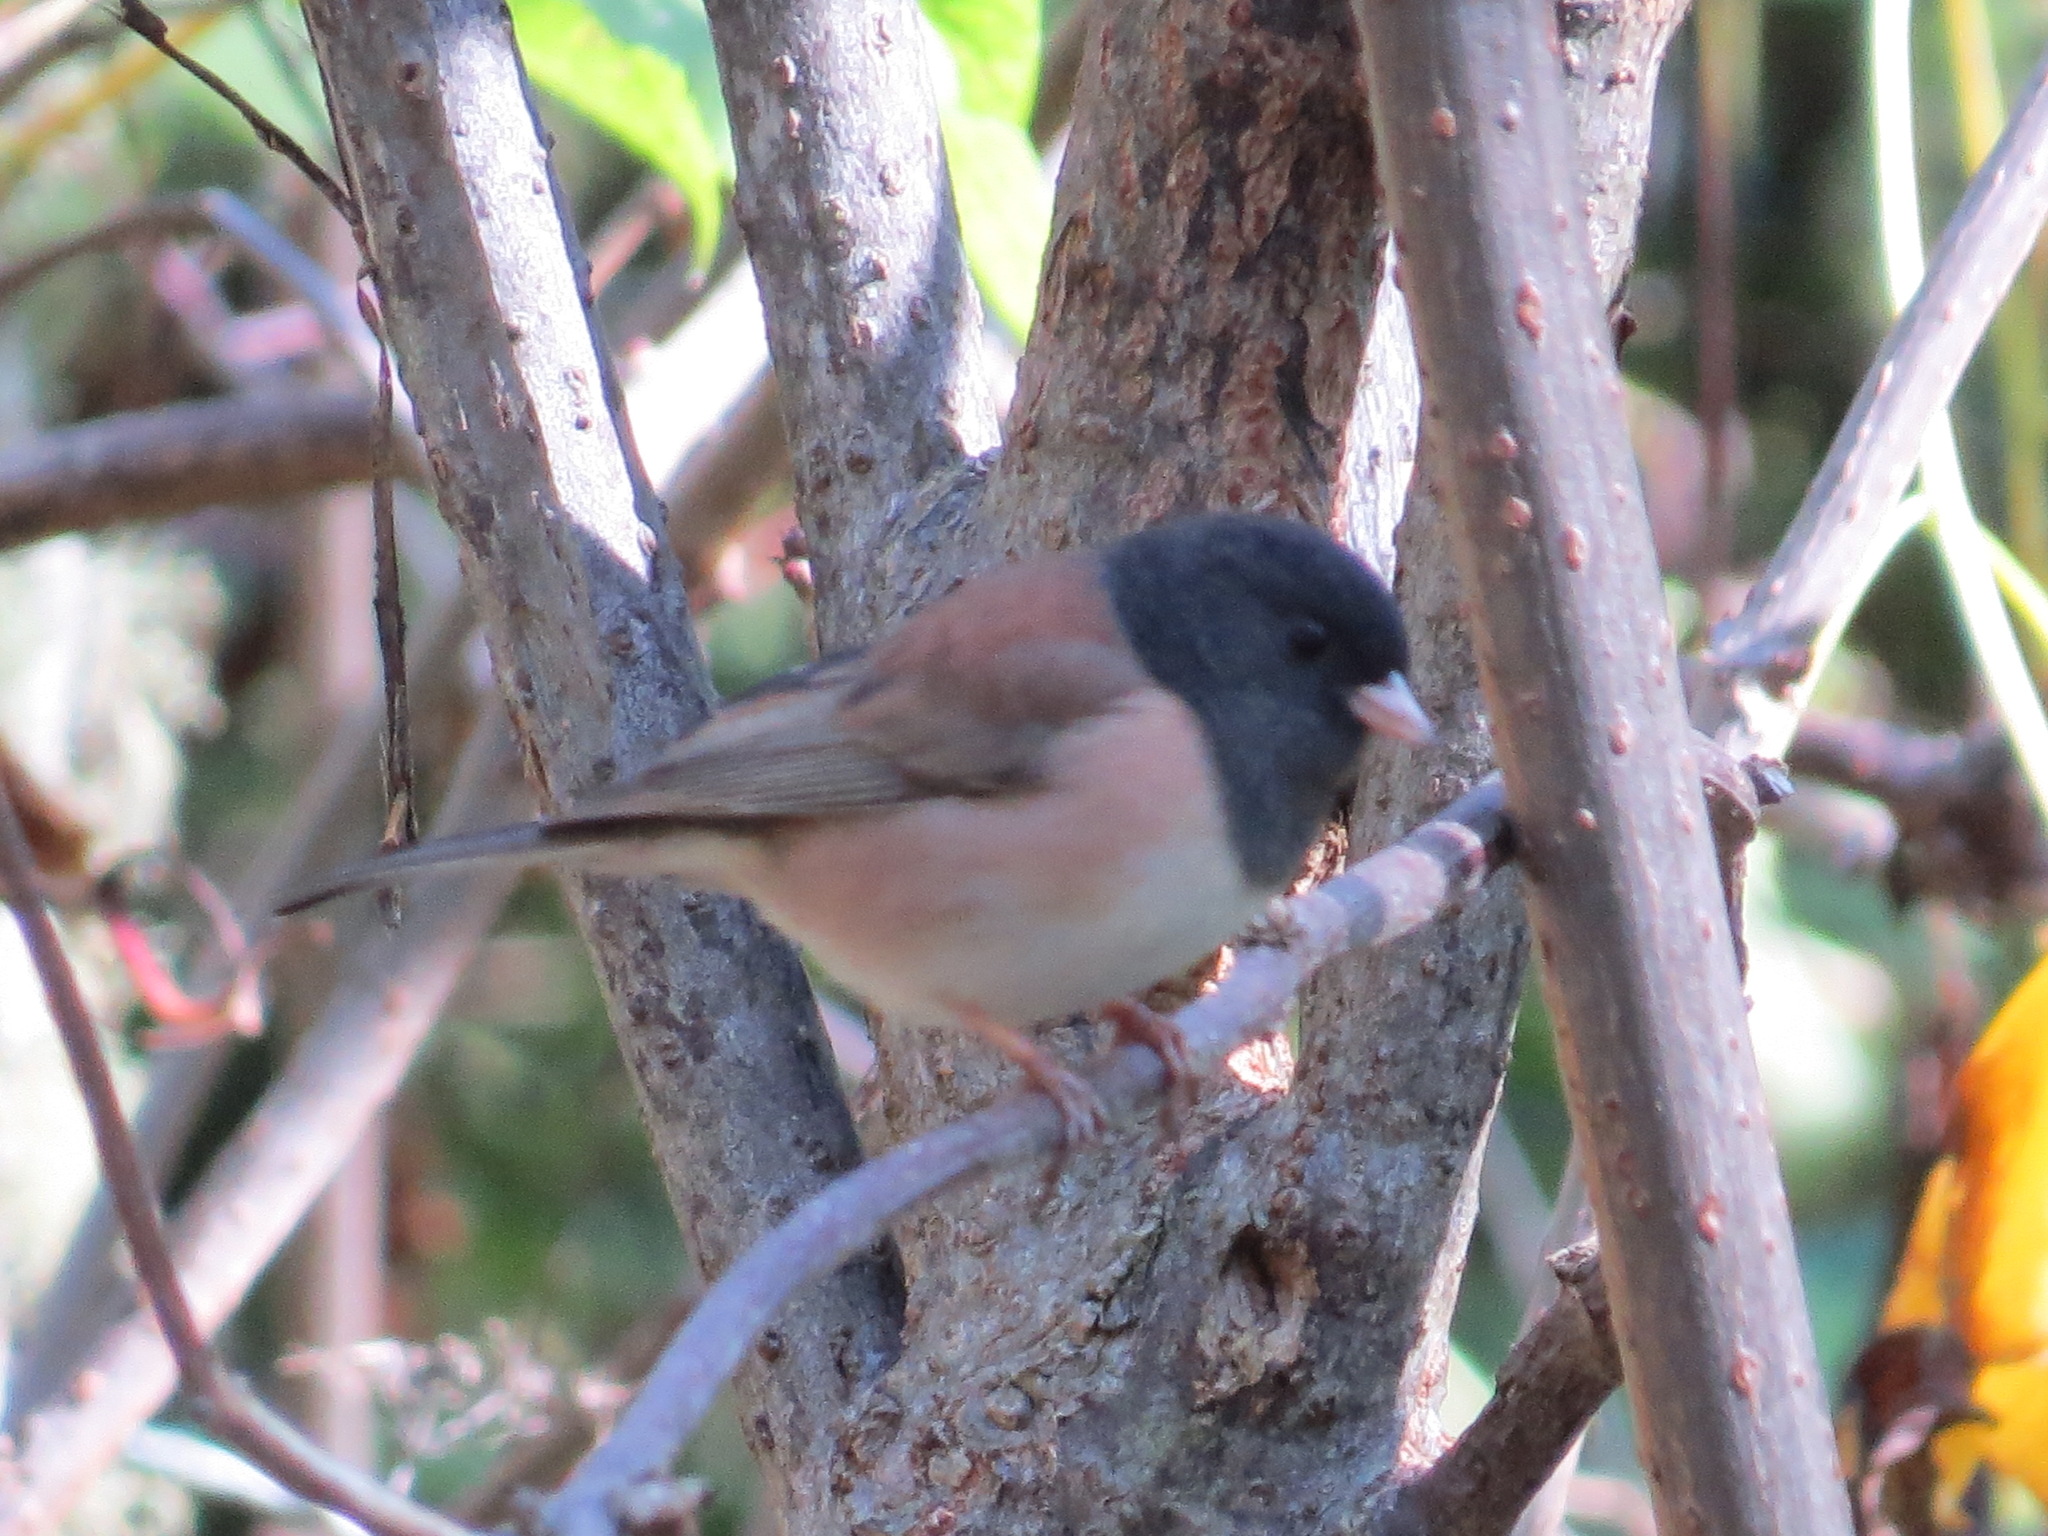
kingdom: Animalia
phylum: Chordata
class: Aves
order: Passeriformes
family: Passerellidae
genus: Junco
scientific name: Junco hyemalis
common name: Dark-eyed junco
